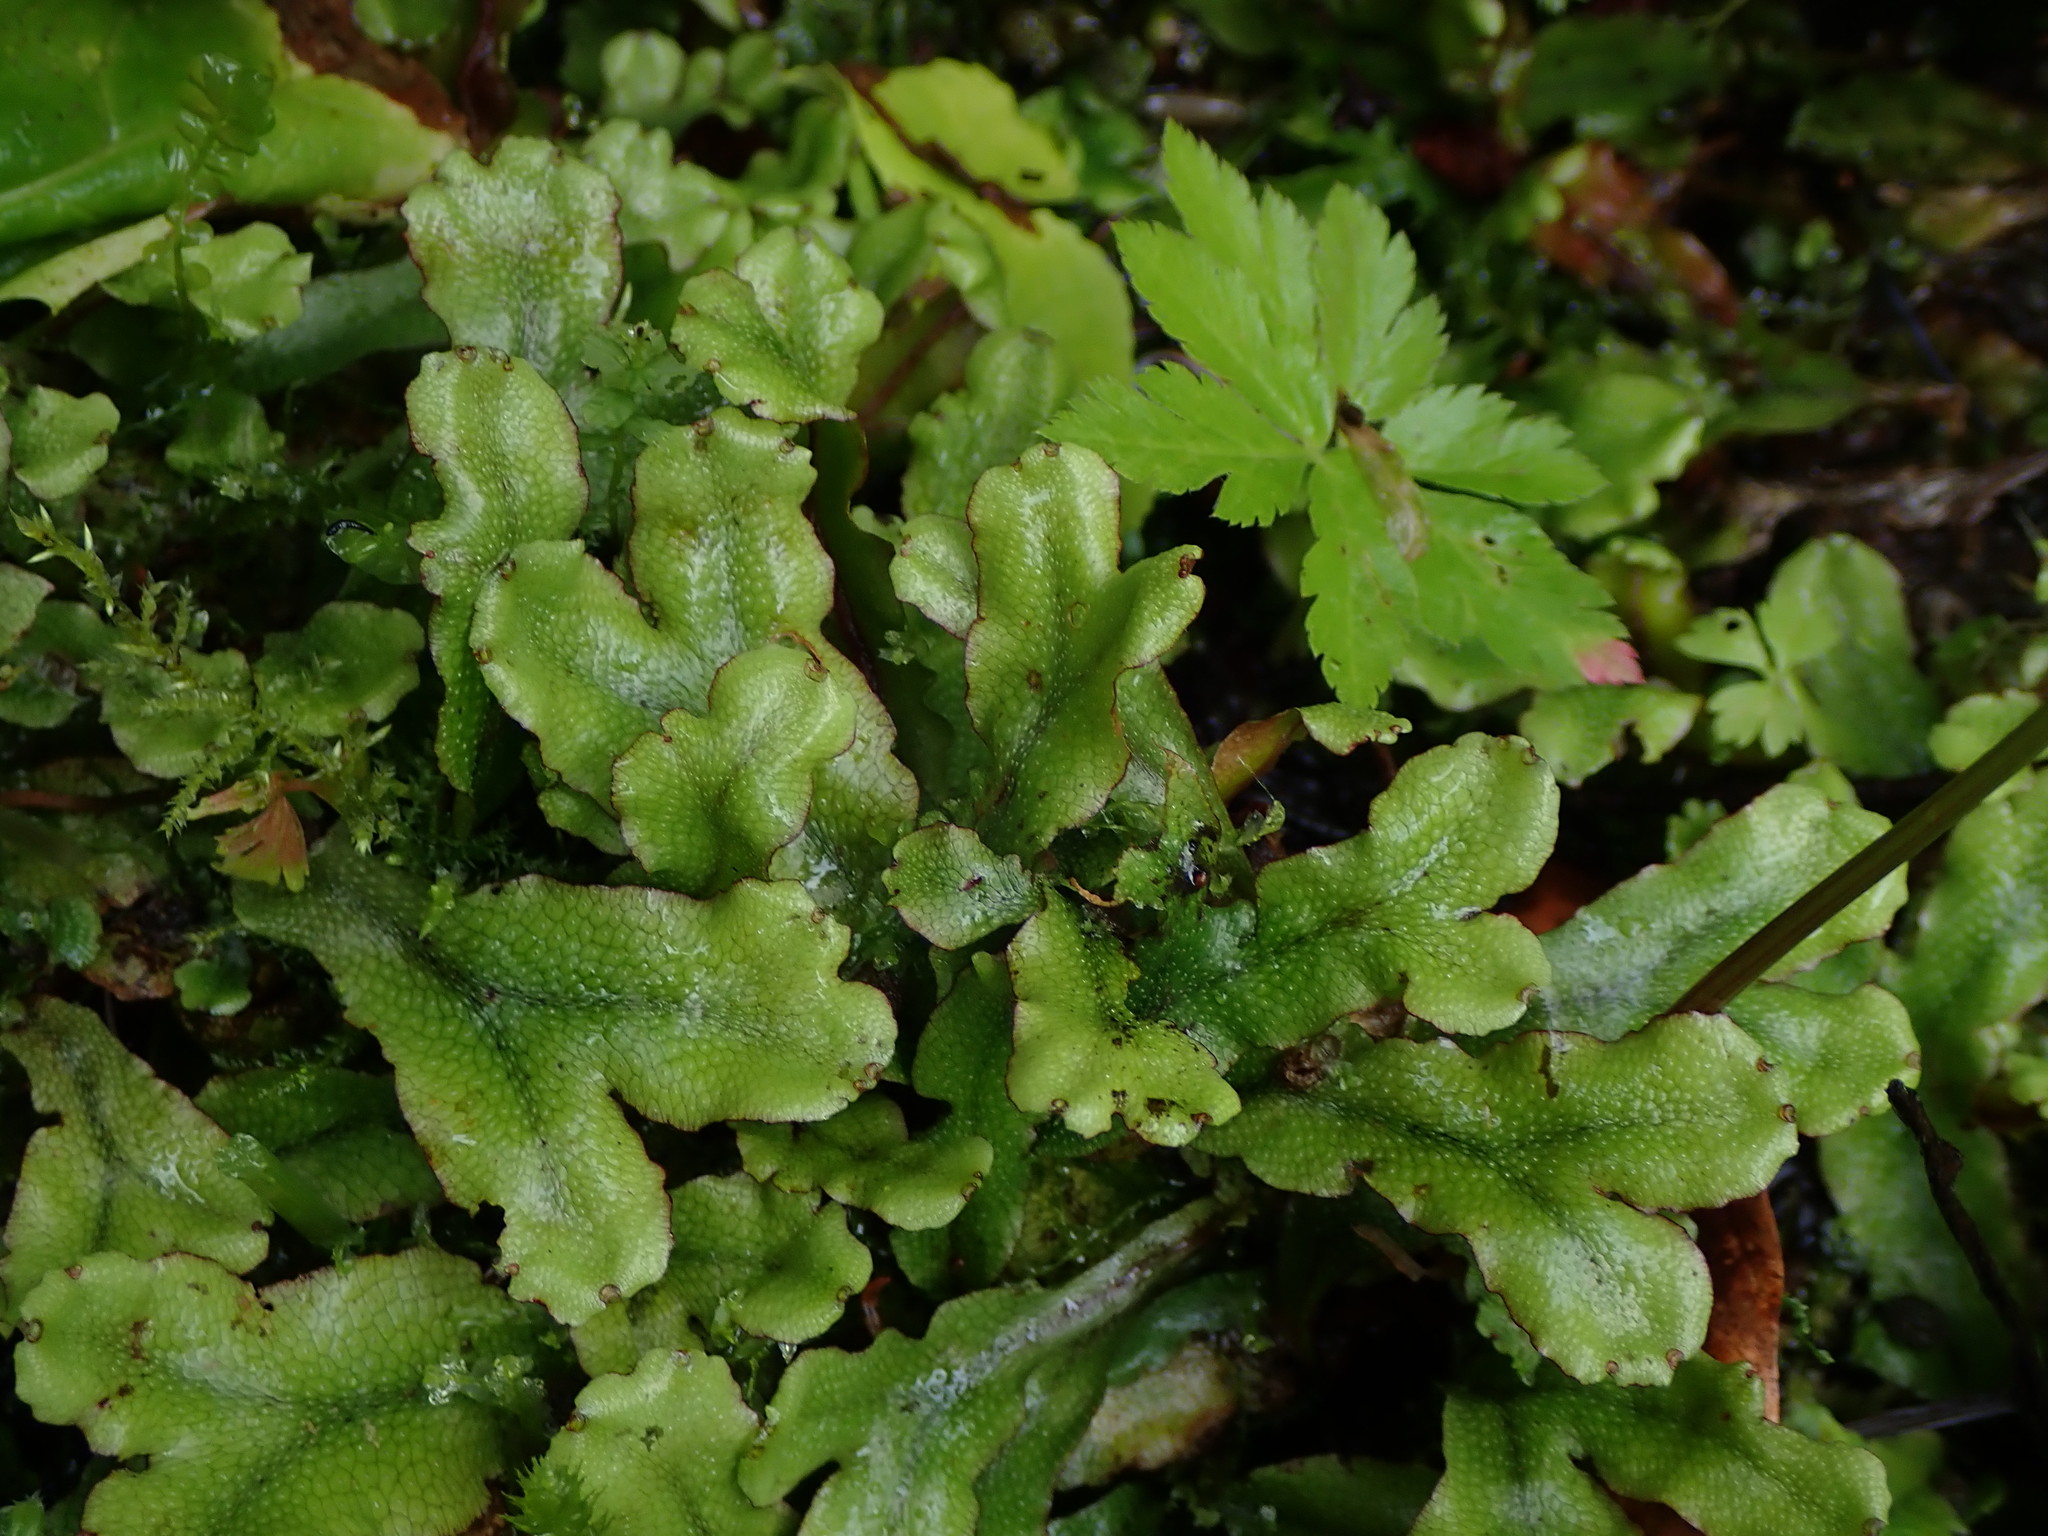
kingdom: Plantae
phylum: Marchantiophyta
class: Marchantiopsida
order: Marchantiales
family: Conocephalaceae
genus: Conocephalum
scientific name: Conocephalum conicum
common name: Great scented liverwort
